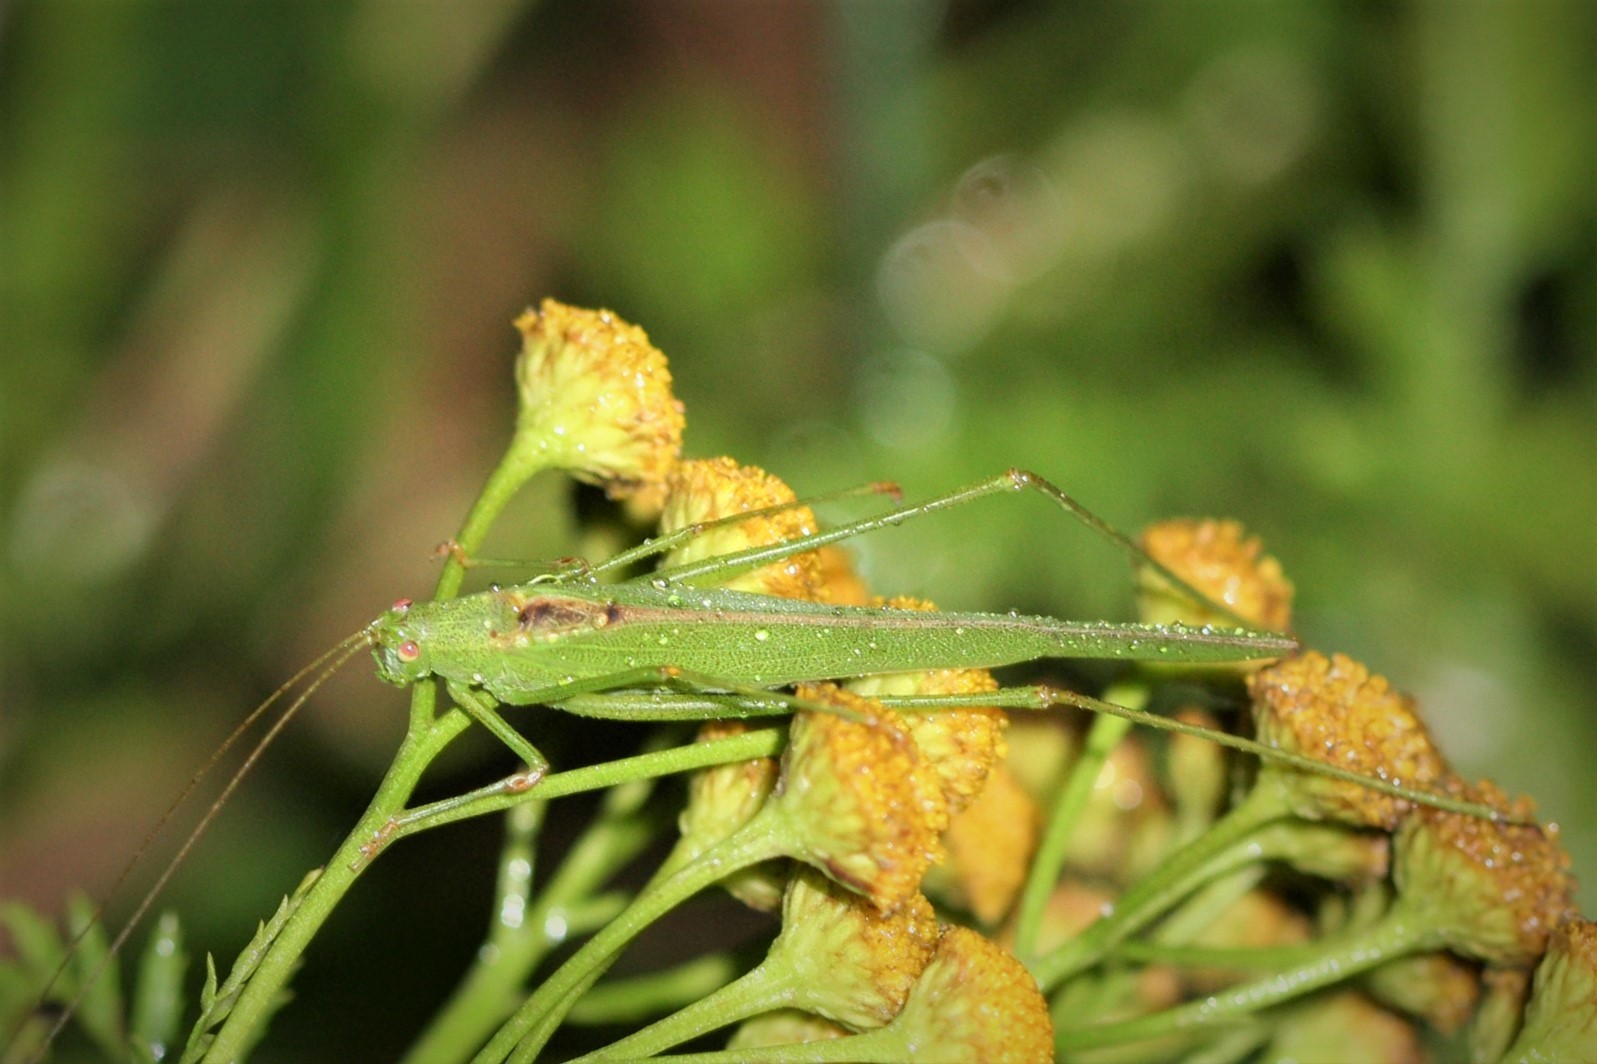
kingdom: Animalia
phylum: Arthropoda
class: Insecta
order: Orthoptera
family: Tettigoniidae
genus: Phaneroptera
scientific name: Phaneroptera falcata
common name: Sickle-bearing bush-cricket
